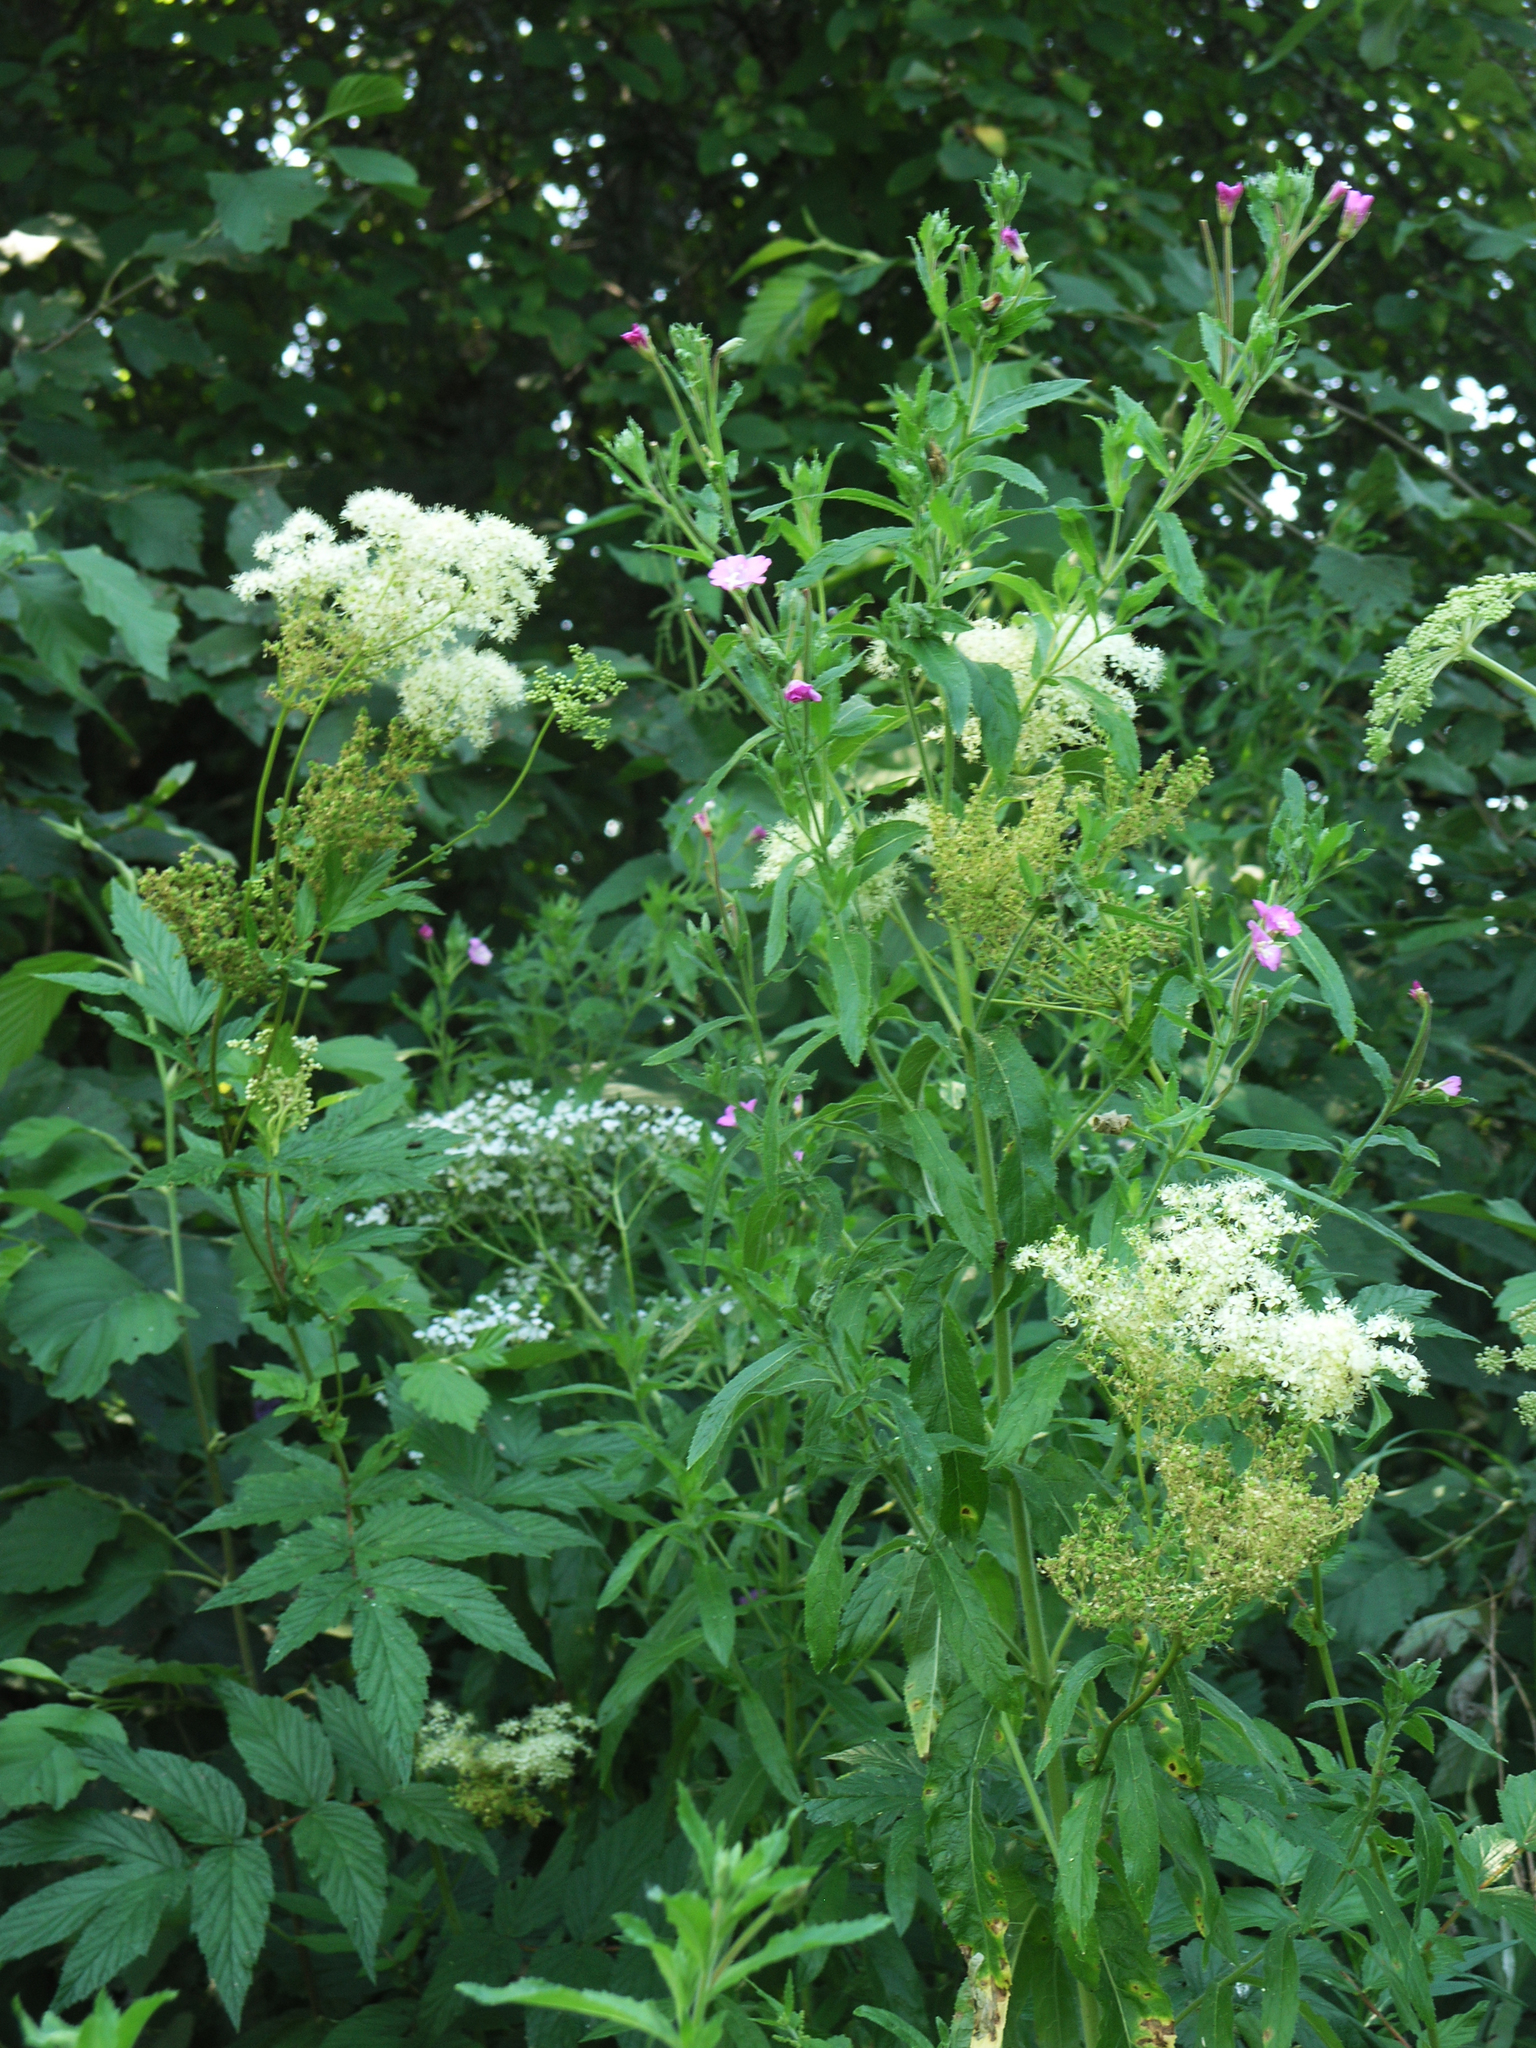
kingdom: Plantae
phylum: Tracheophyta
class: Magnoliopsida
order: Rosales
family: Rosaceae
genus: Filipendula
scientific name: Filipendula ulmaria
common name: Meadowsweet
